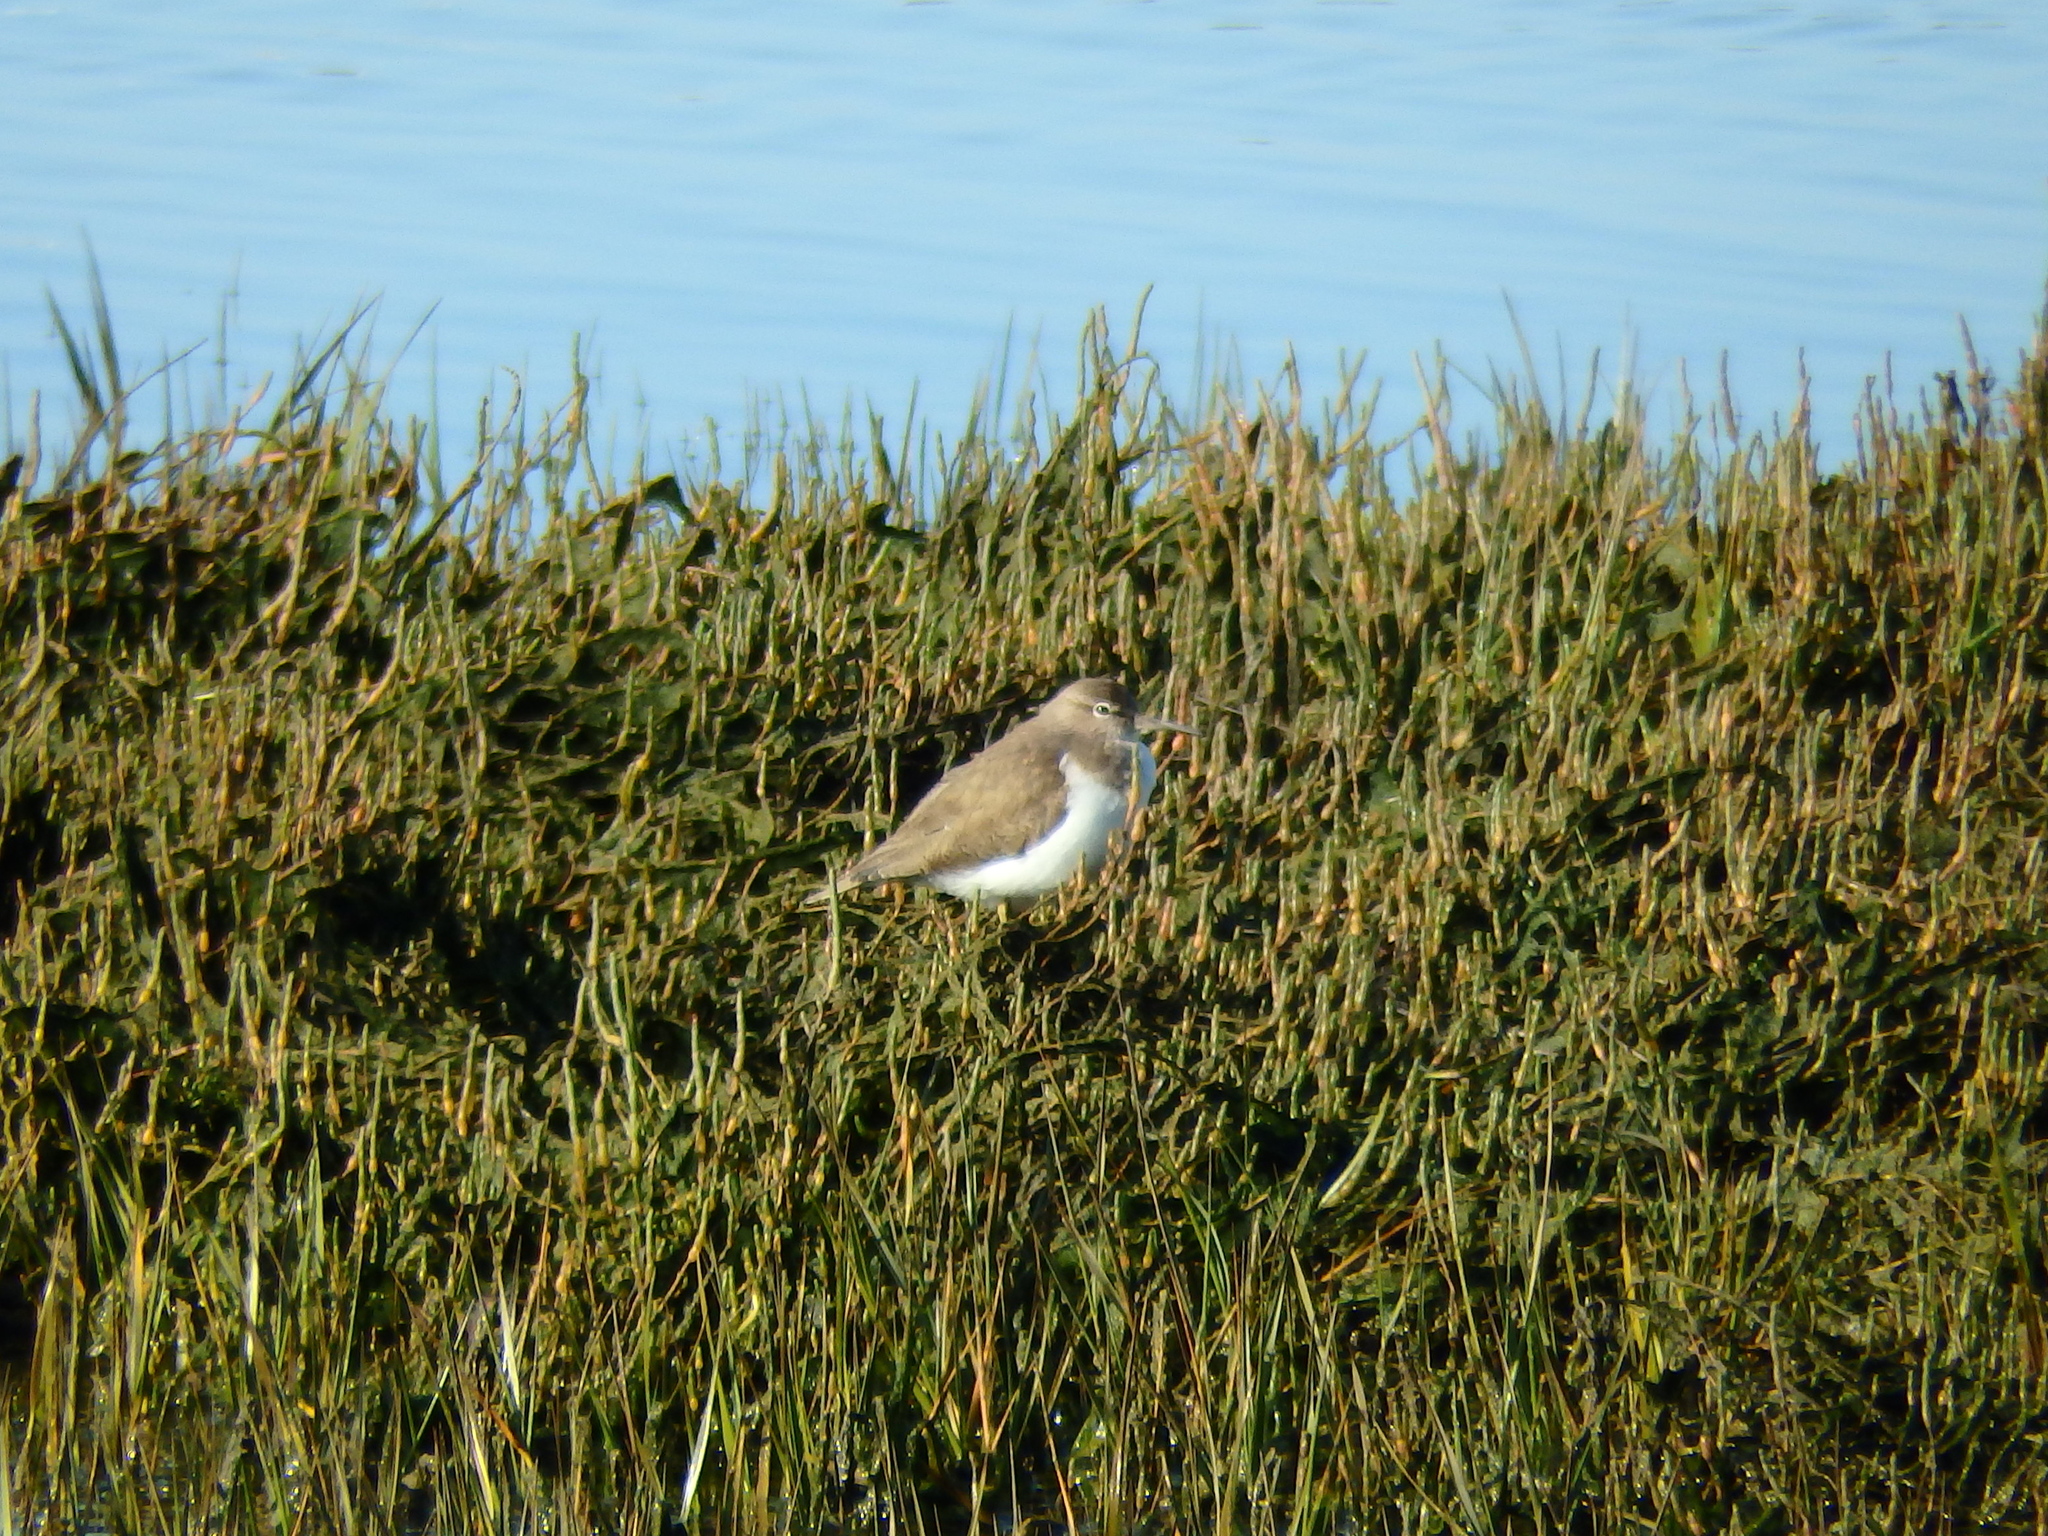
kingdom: Animalia
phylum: Chordata
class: Aves
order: Charadriiformes
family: Scolopacidae
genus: Actitis
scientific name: Actitis hypoleucos
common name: Common sandpiper
